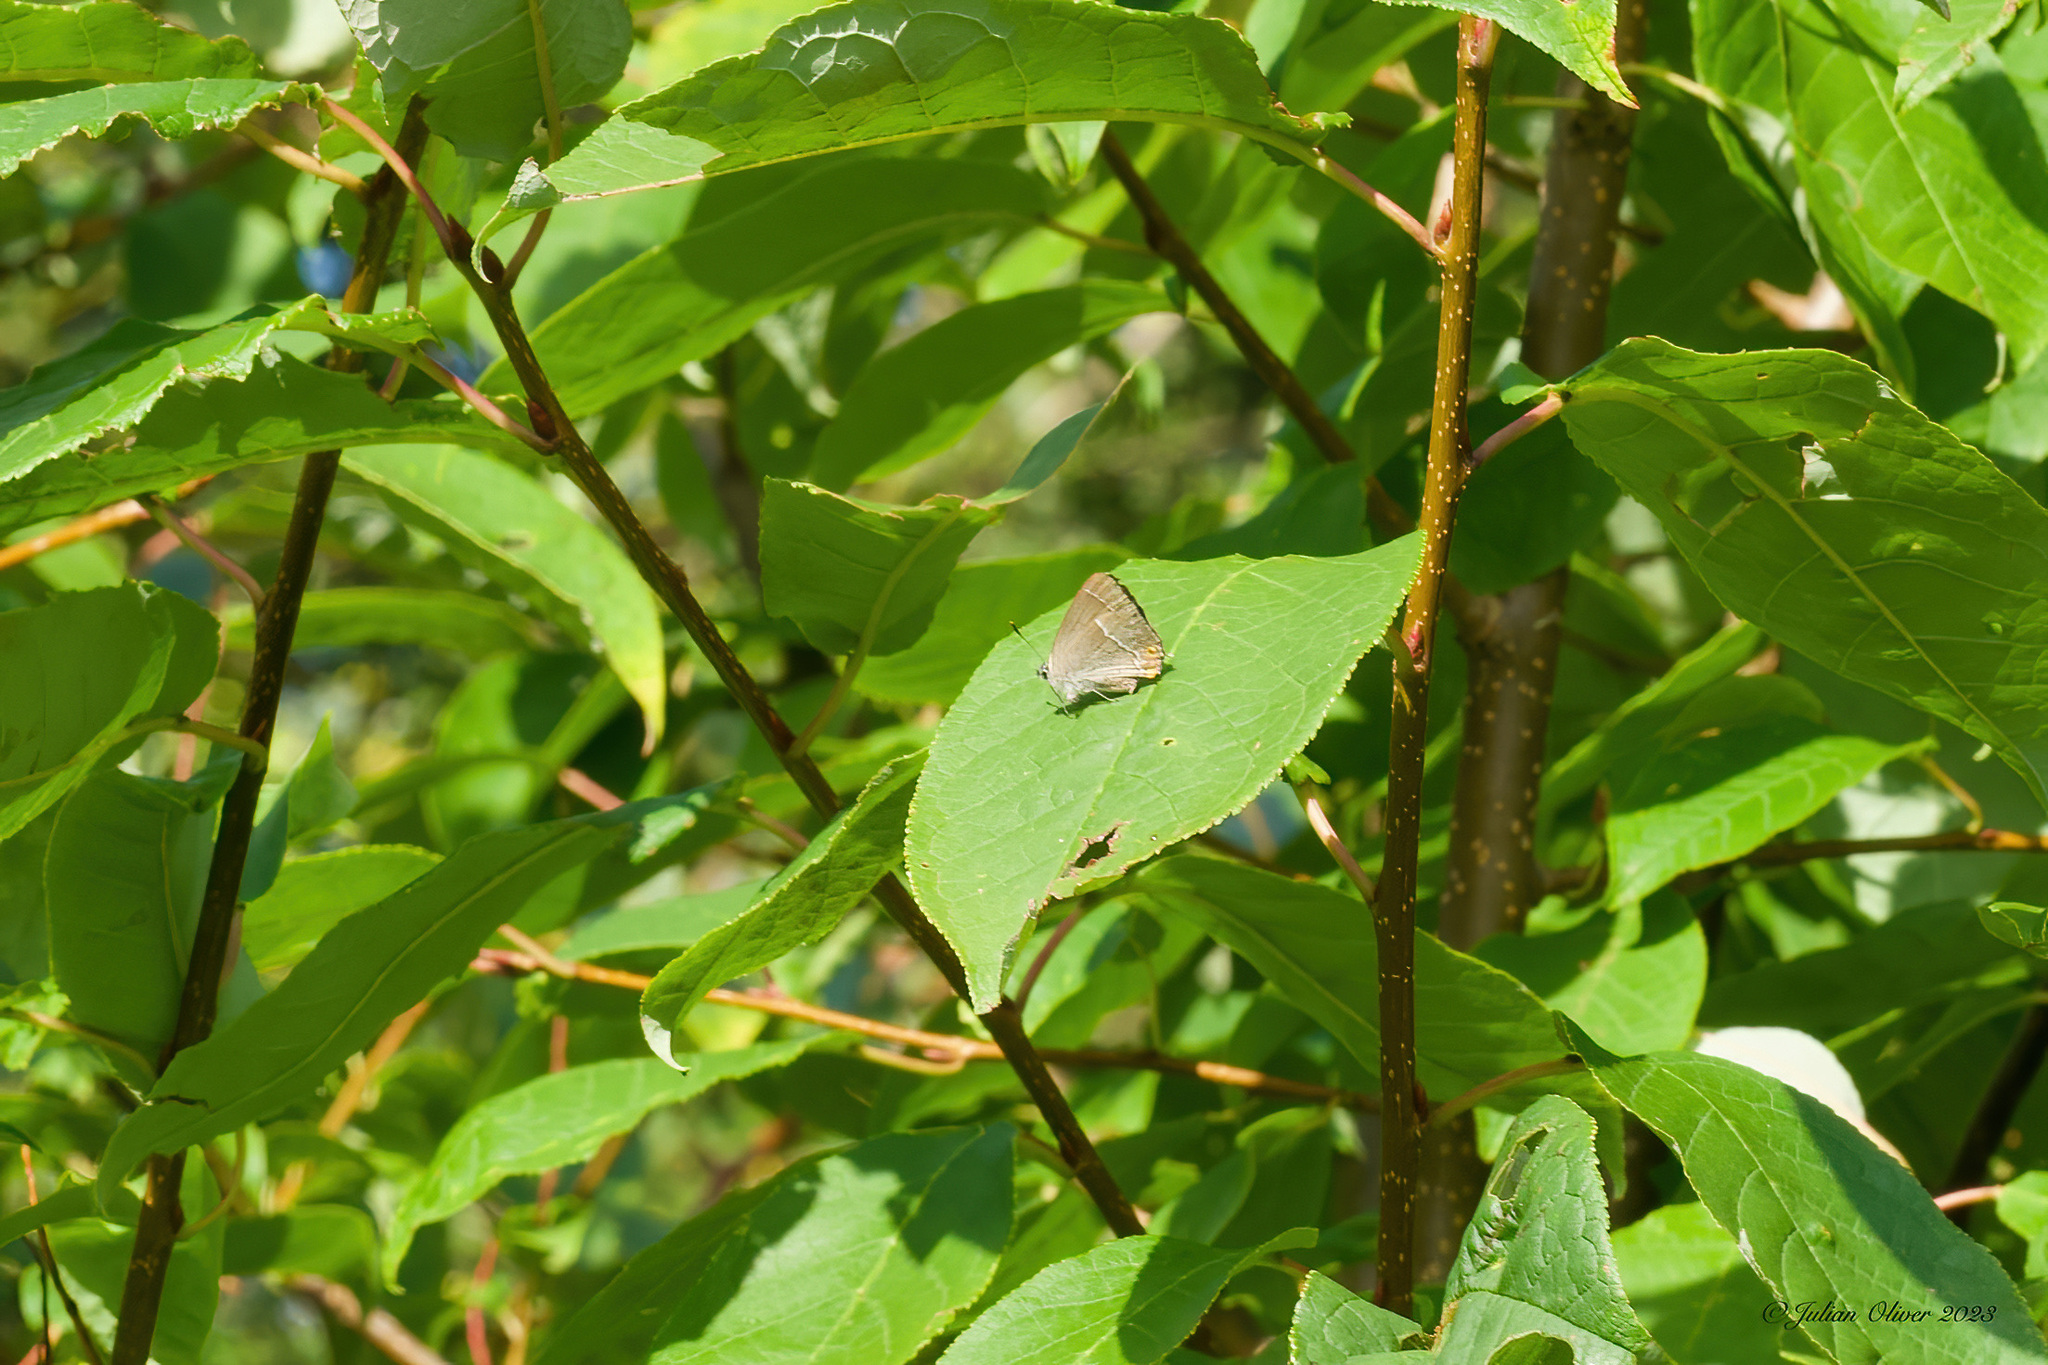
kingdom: Animalia
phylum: Arthropoda
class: Insecta
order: Lepidoptera
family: Lycaenidae
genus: Quercusia
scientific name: Quercusia quercus
